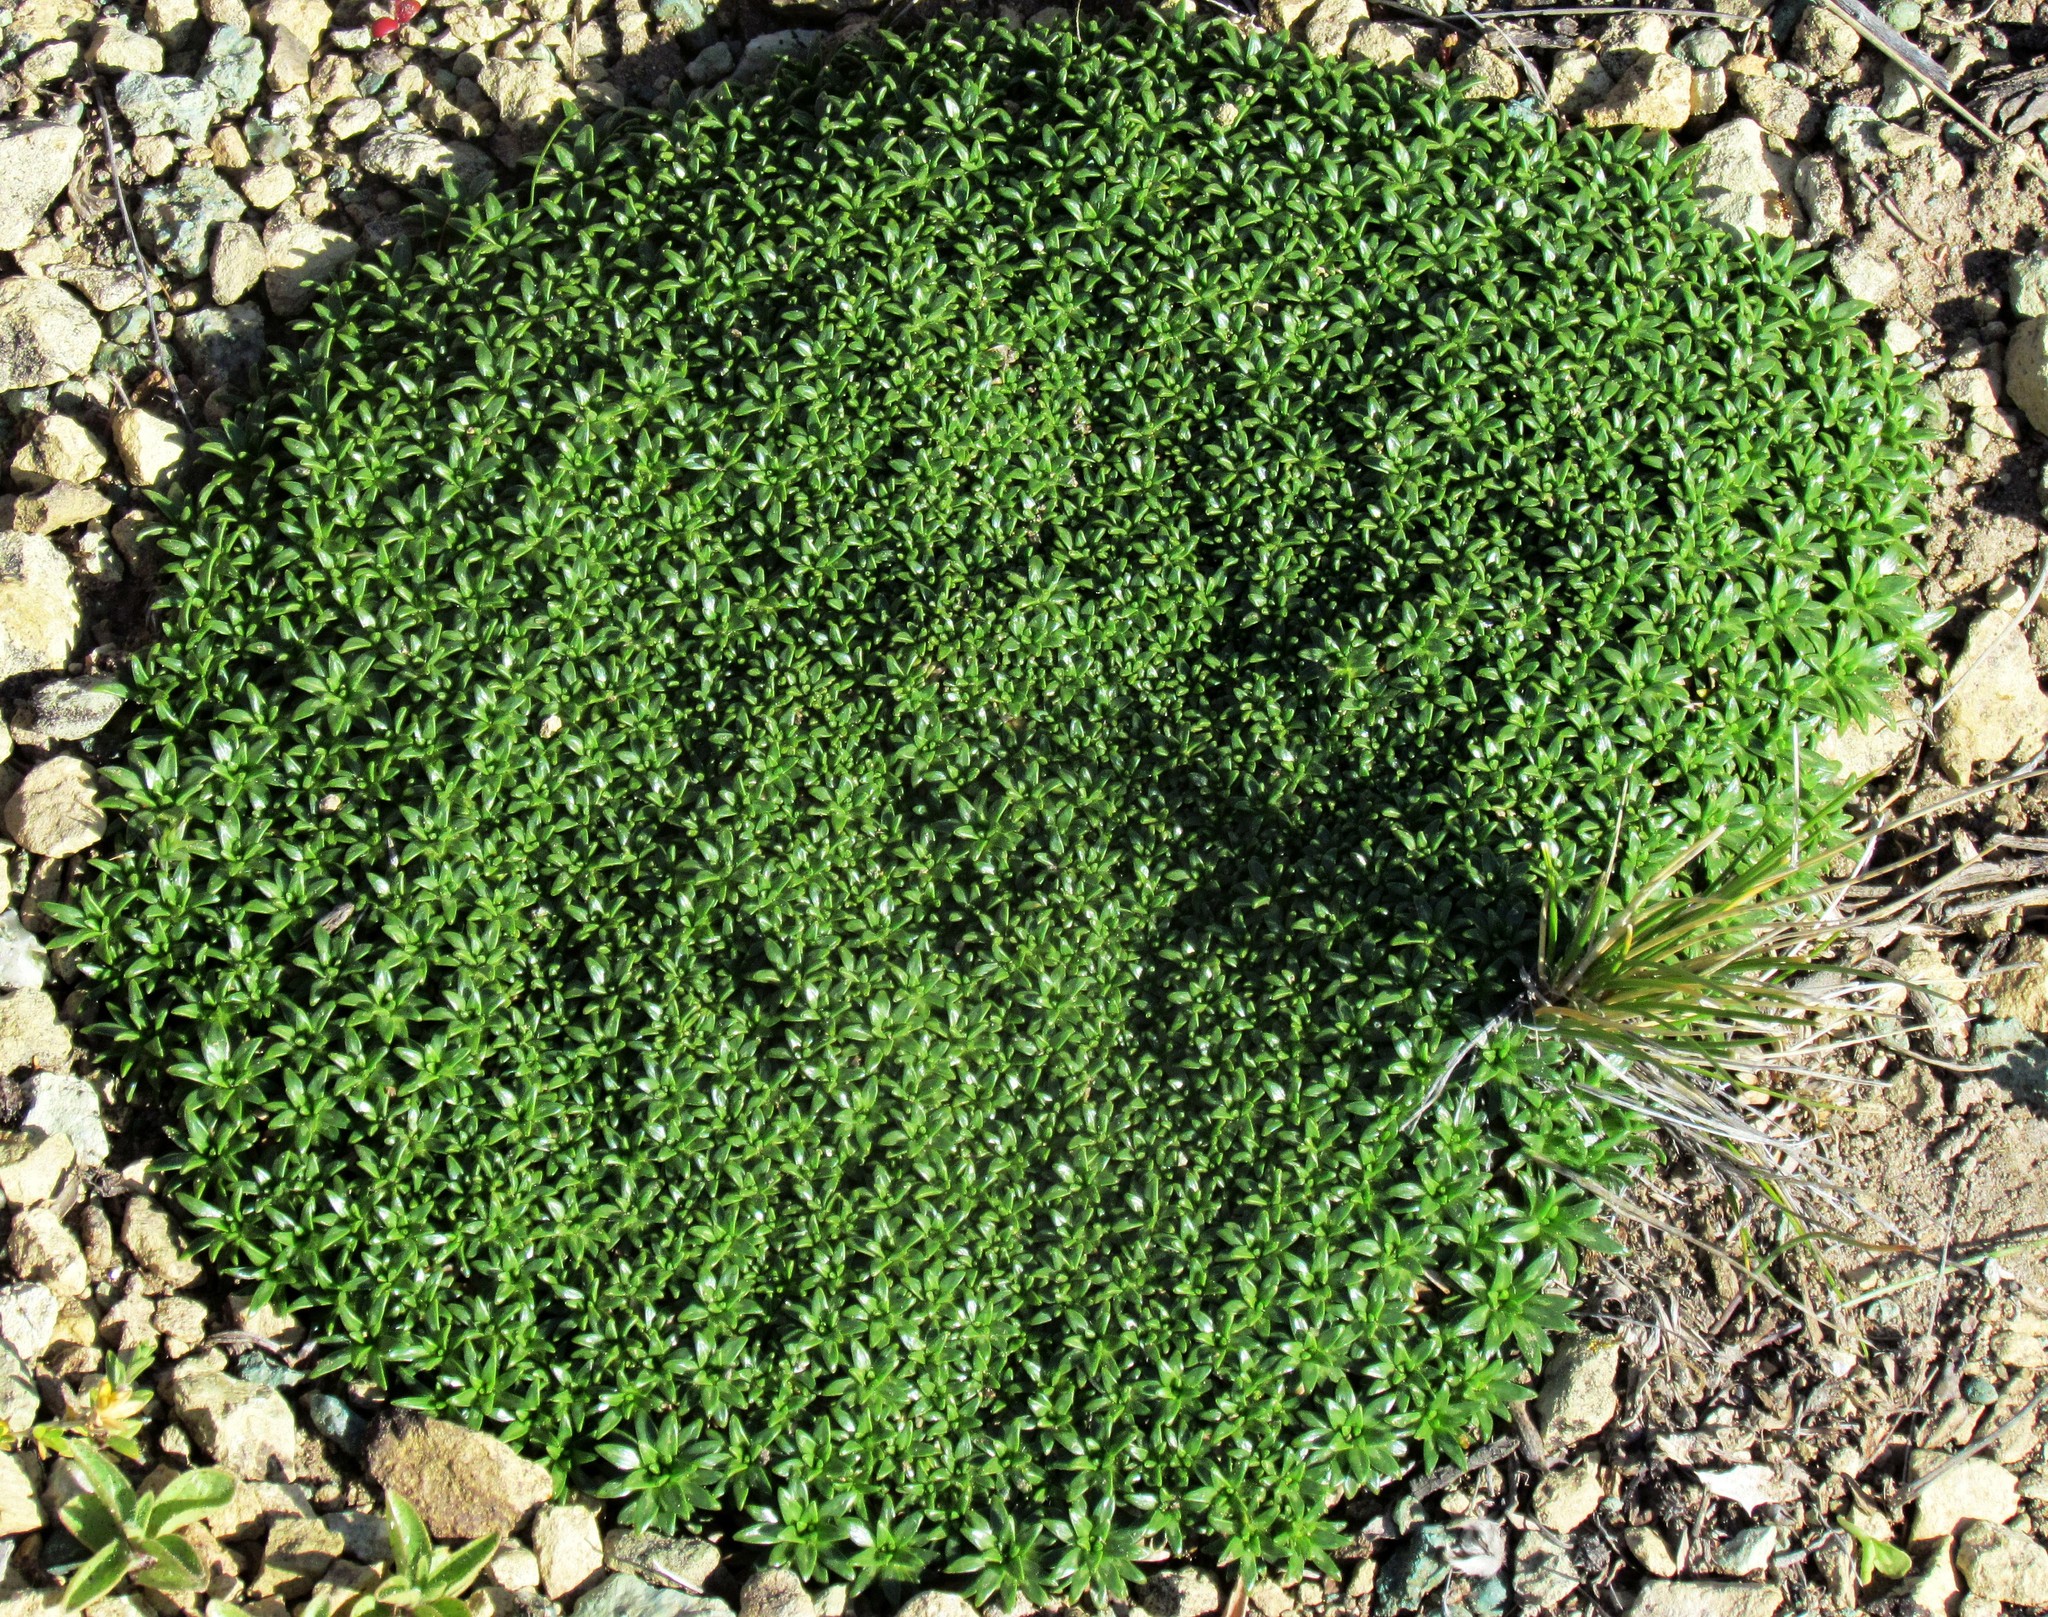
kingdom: Plantae
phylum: Tracheophyta
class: Magnoliopsida
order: Apiales
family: Apiaceae
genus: Azorella
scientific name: Azorella monantha
